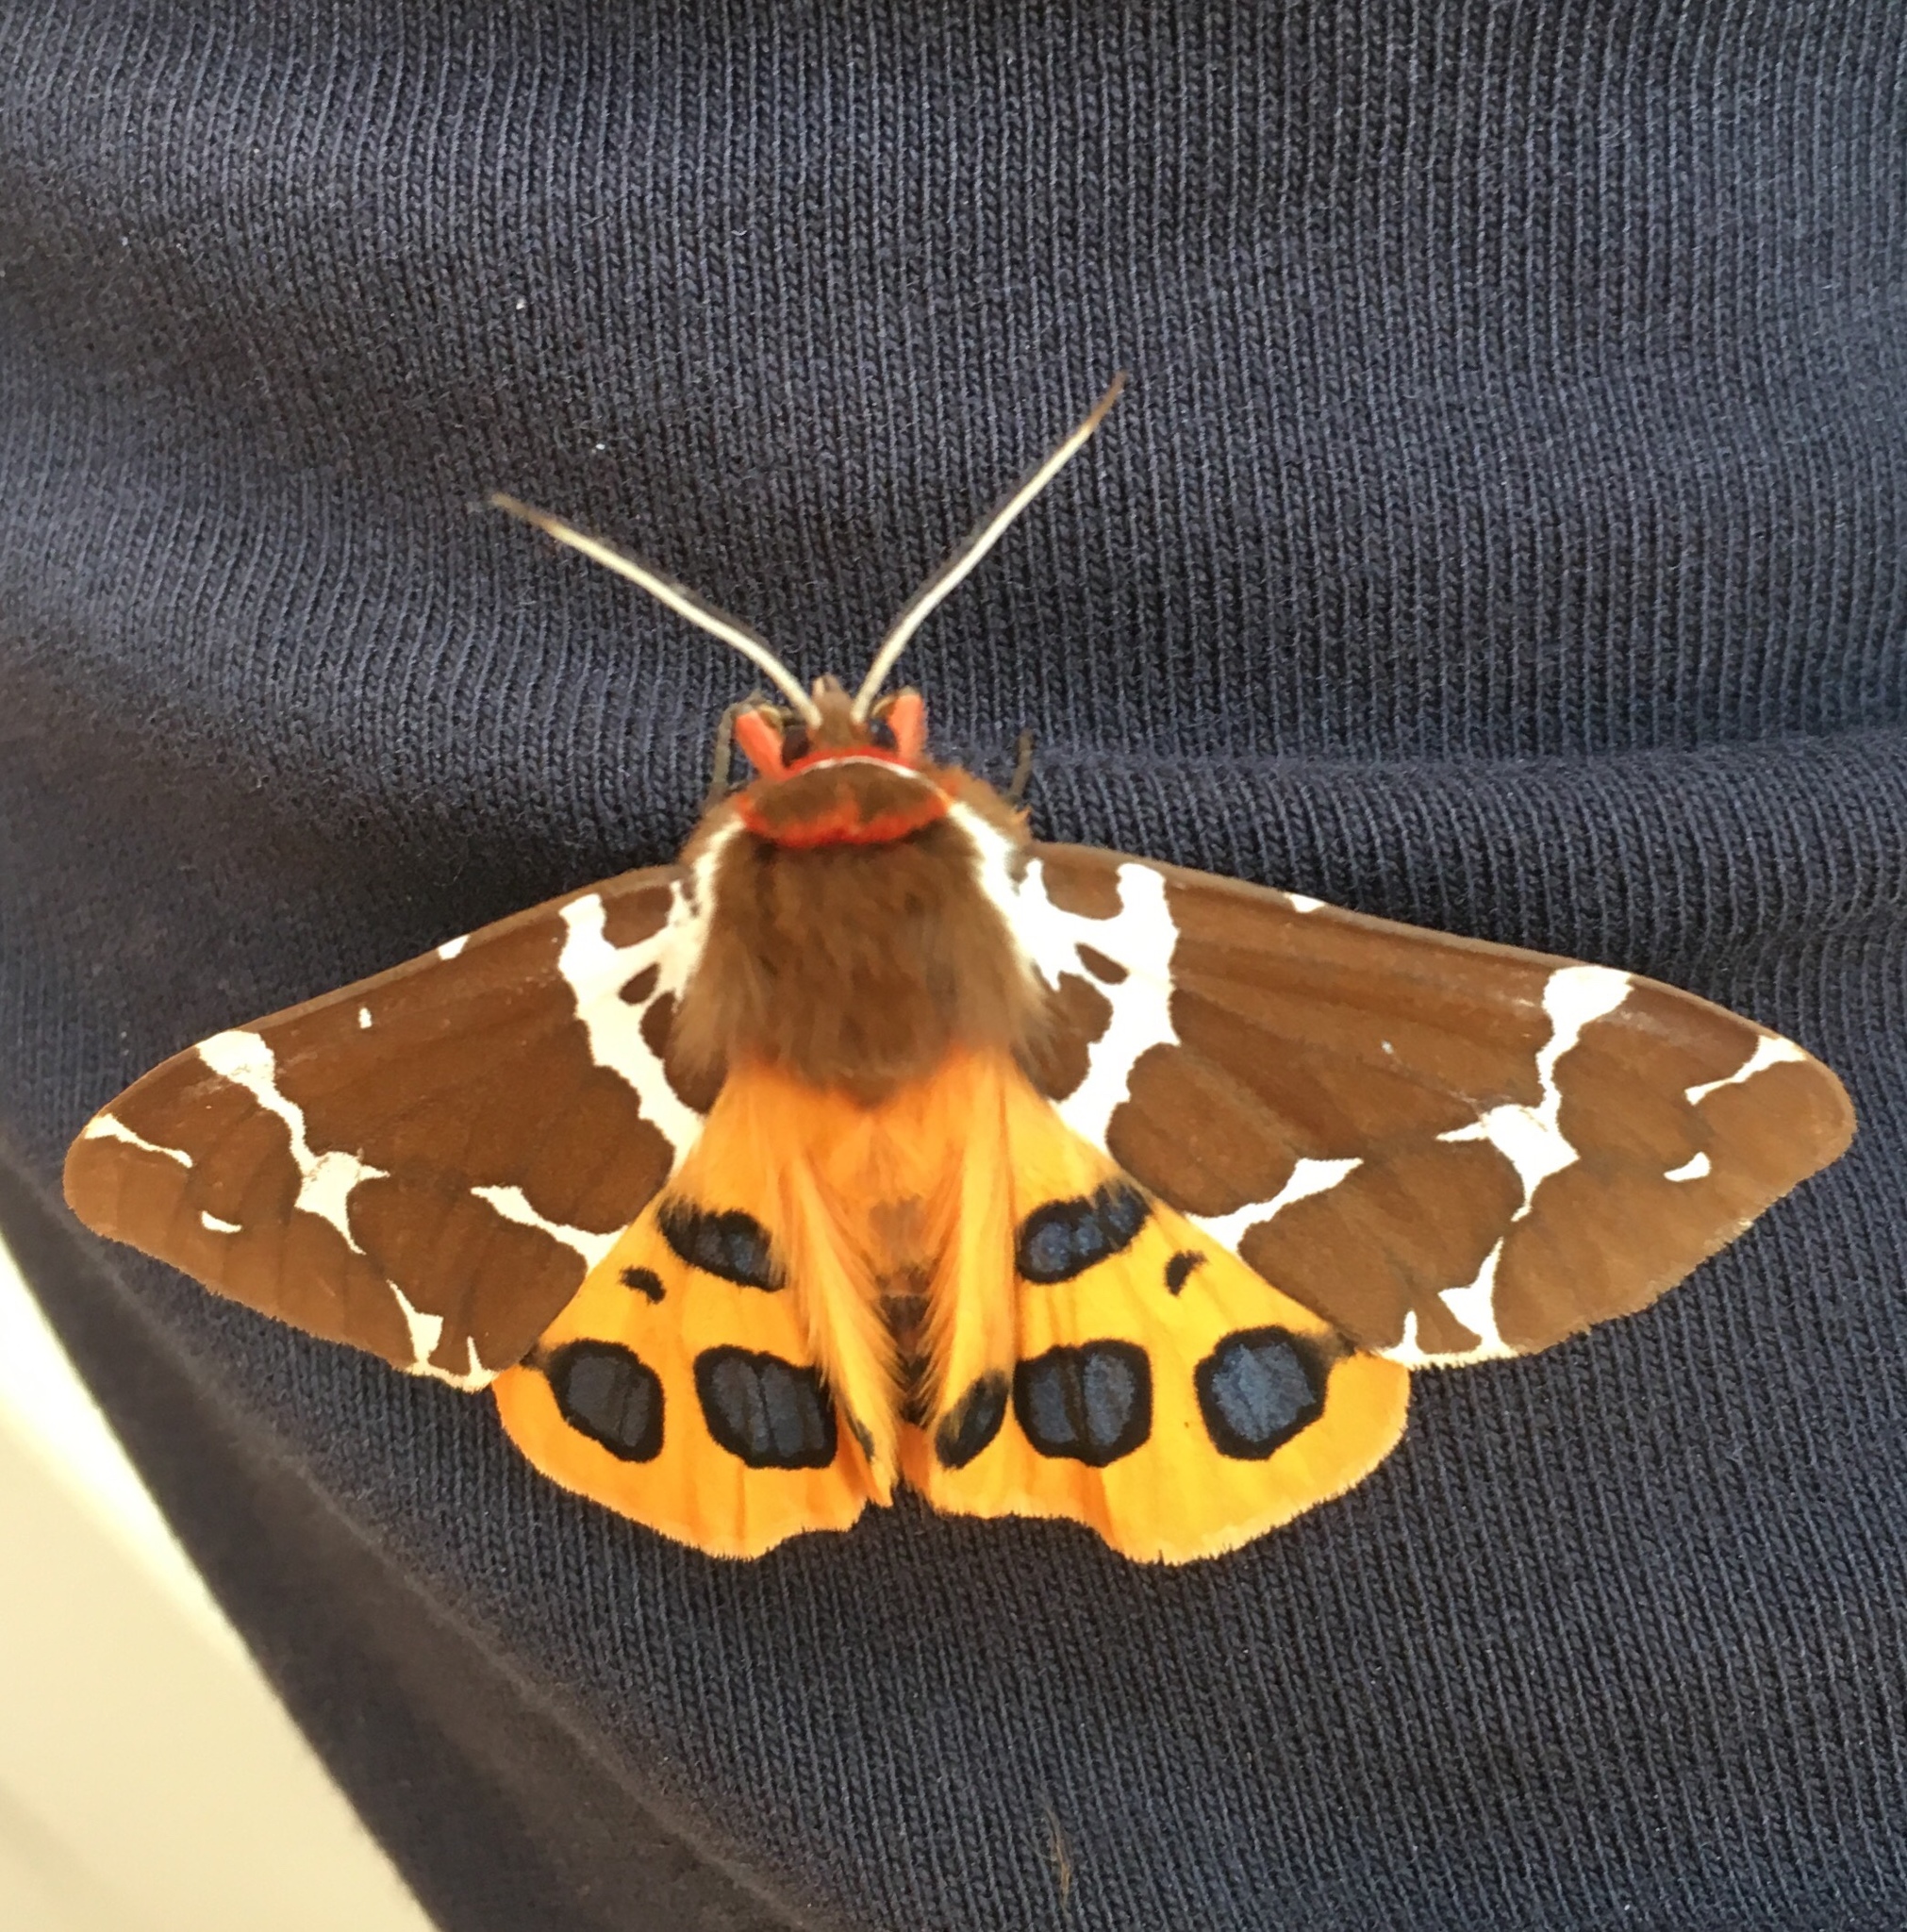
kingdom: Animalia
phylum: Arthropoda
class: Insecta
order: Lepidoptera
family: Erebidae
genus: Arctia
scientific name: Arctia caja
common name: Garden tiger
